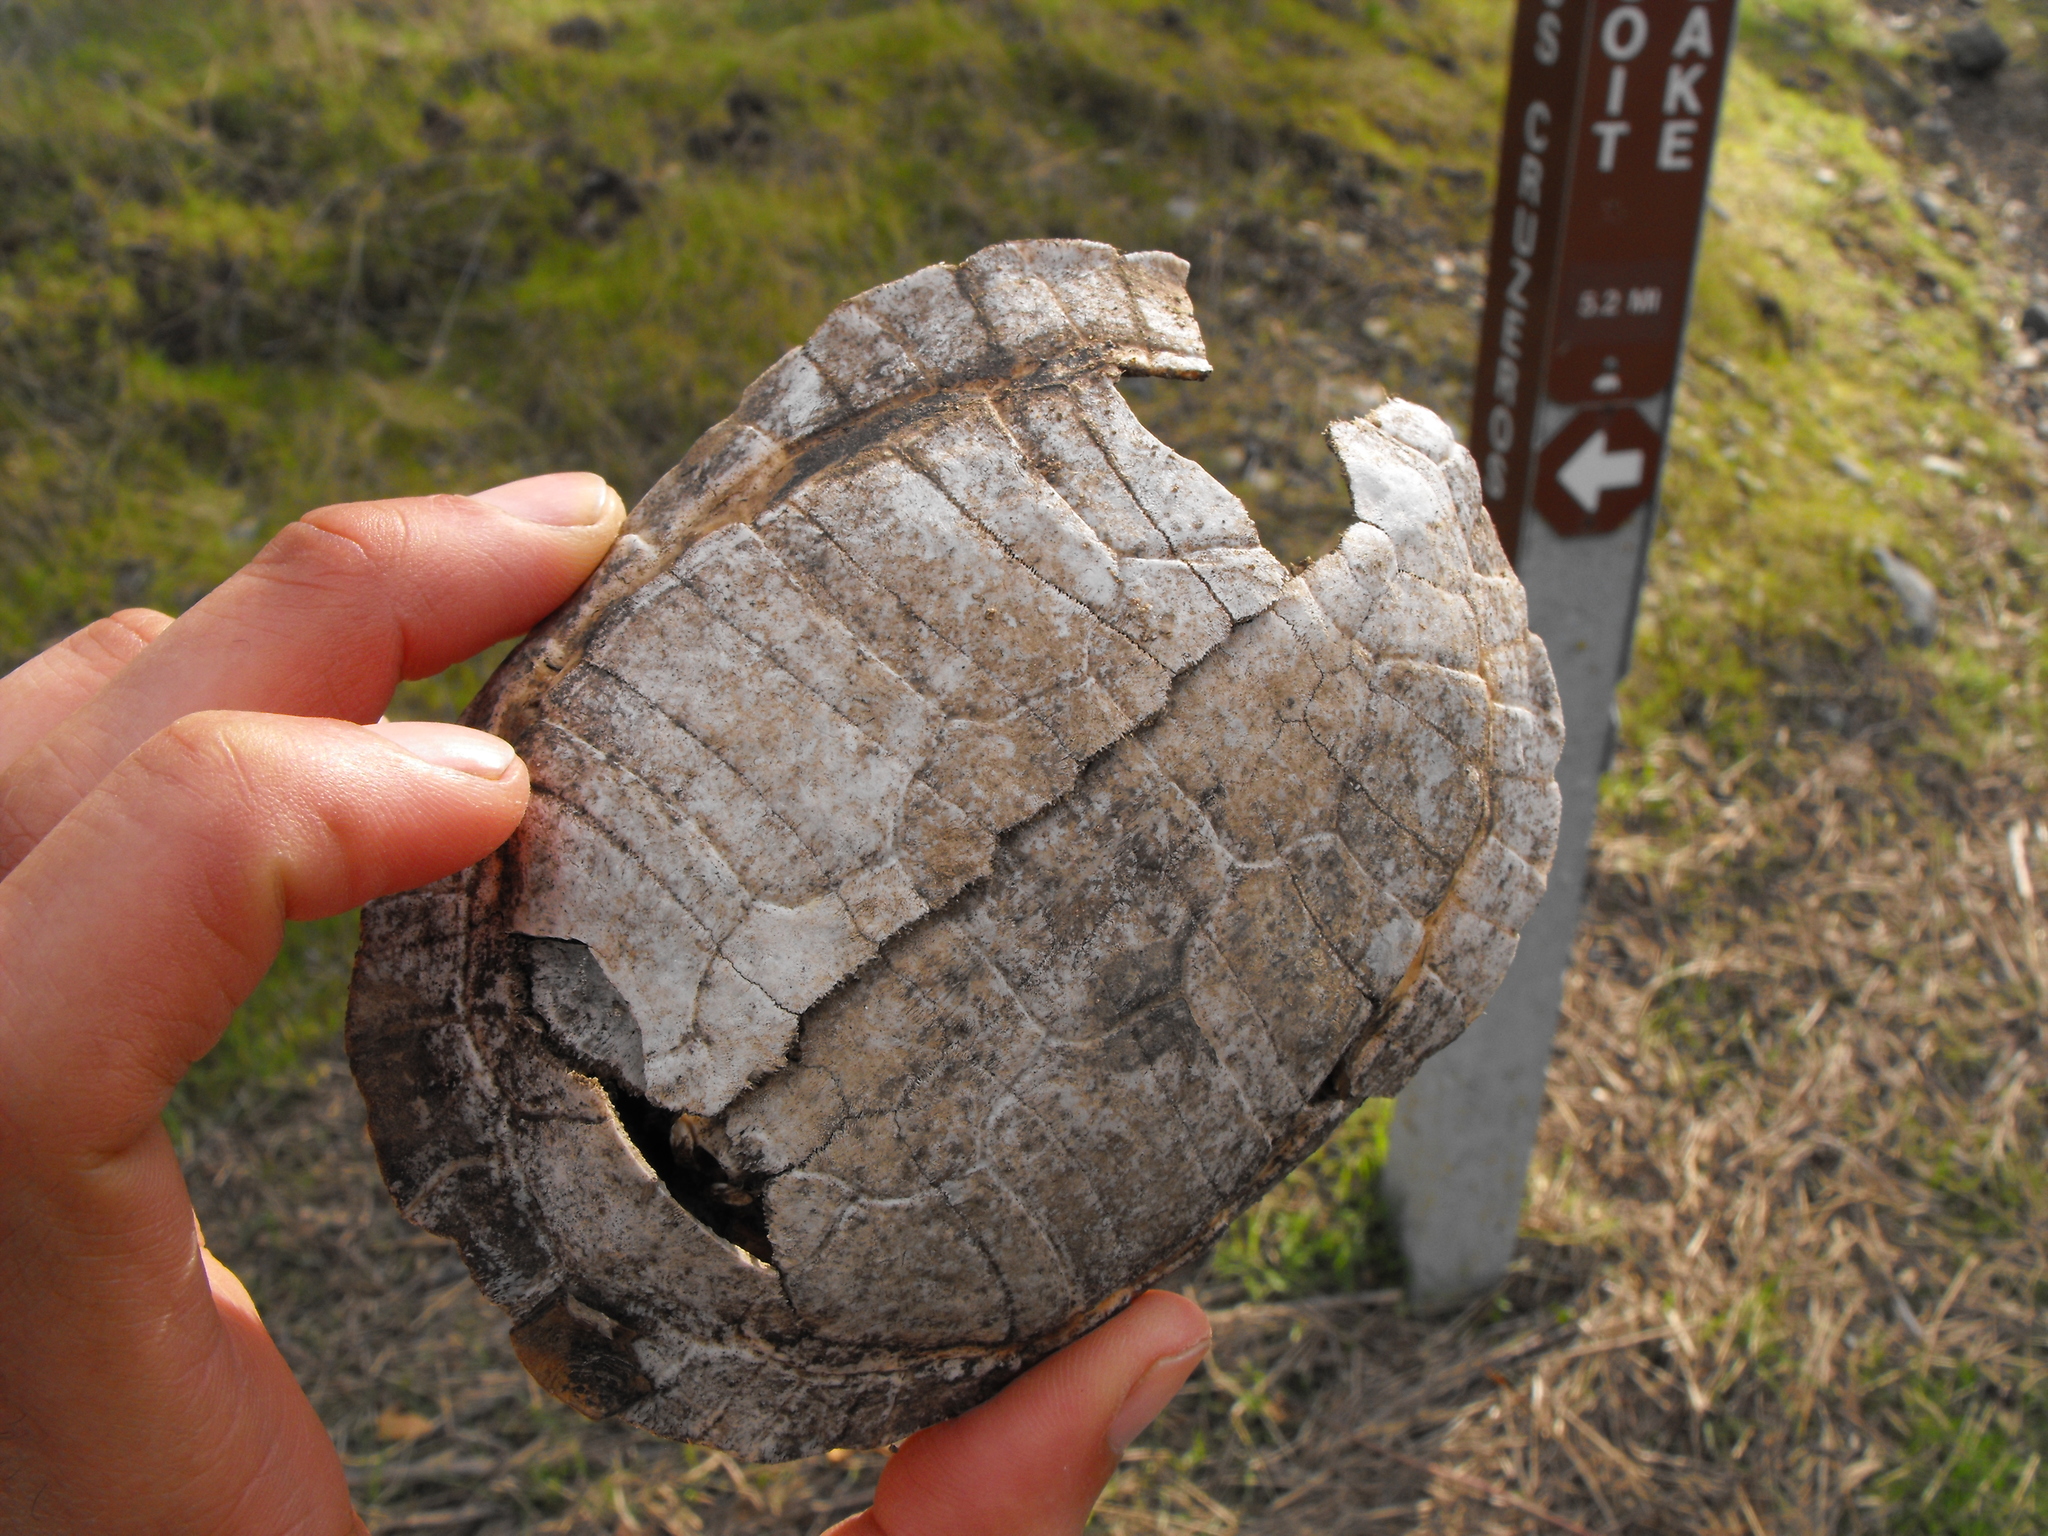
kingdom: Animalia
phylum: Chordata
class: Testudines
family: Emydidae
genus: Actinemys
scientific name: Actinemys marmorata
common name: Western pond turtle
